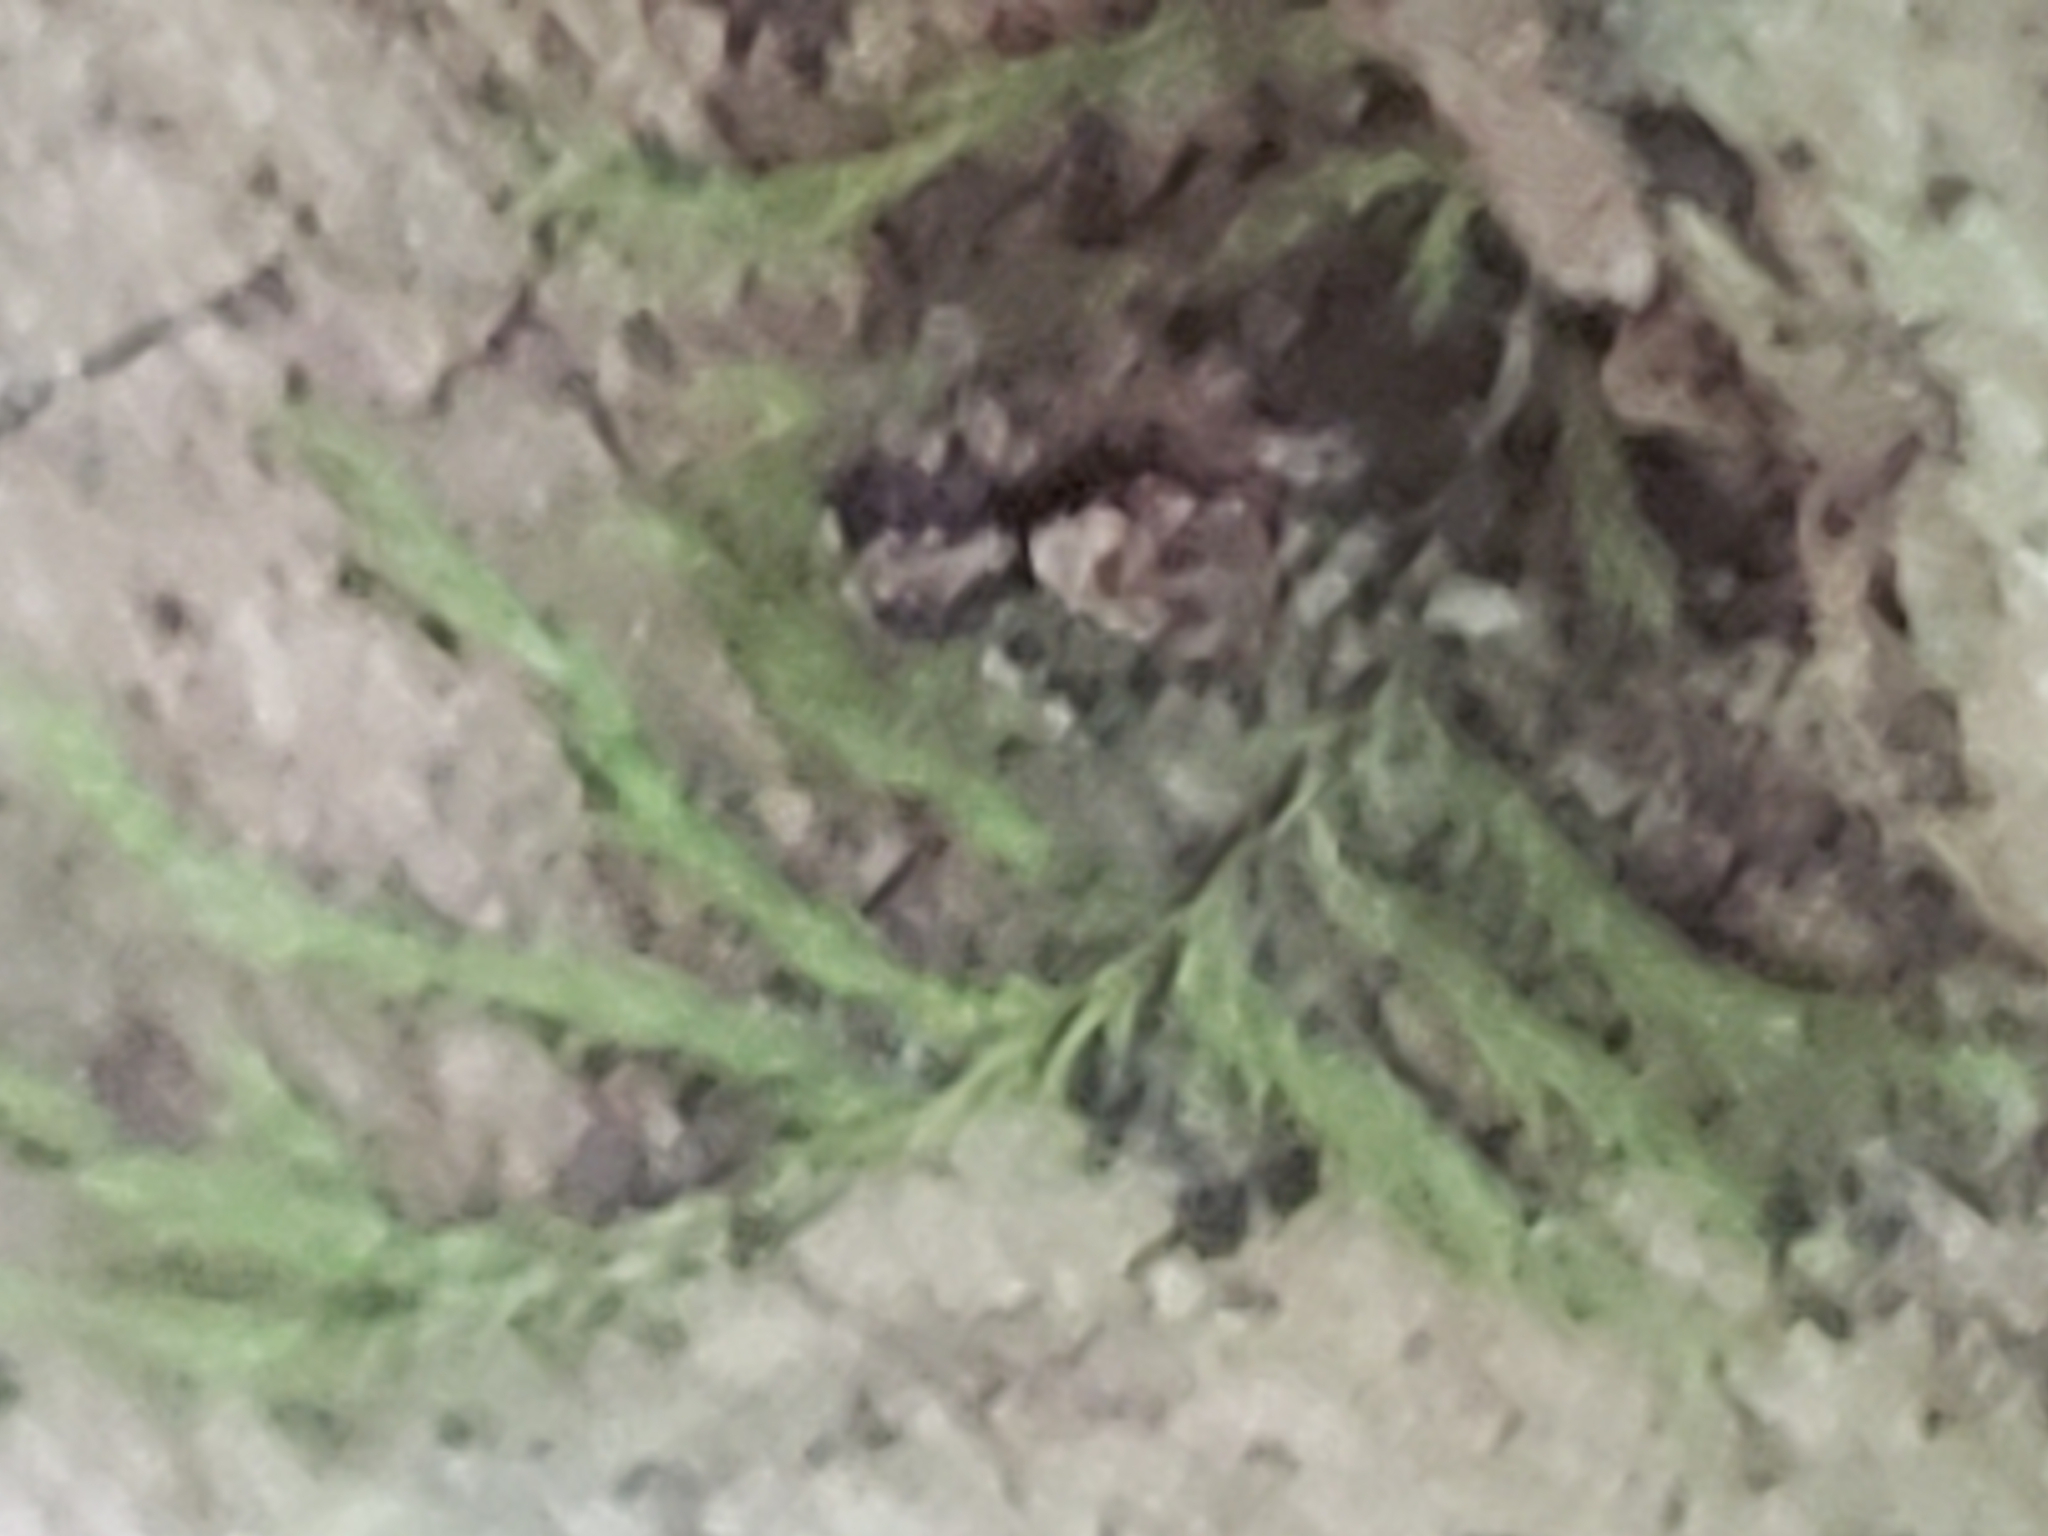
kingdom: Animalia
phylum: Arthropoda
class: Arachnida
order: Araneae
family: Salticidae
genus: Naphrys
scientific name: Naphrys pulex
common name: Flea jumping spider
